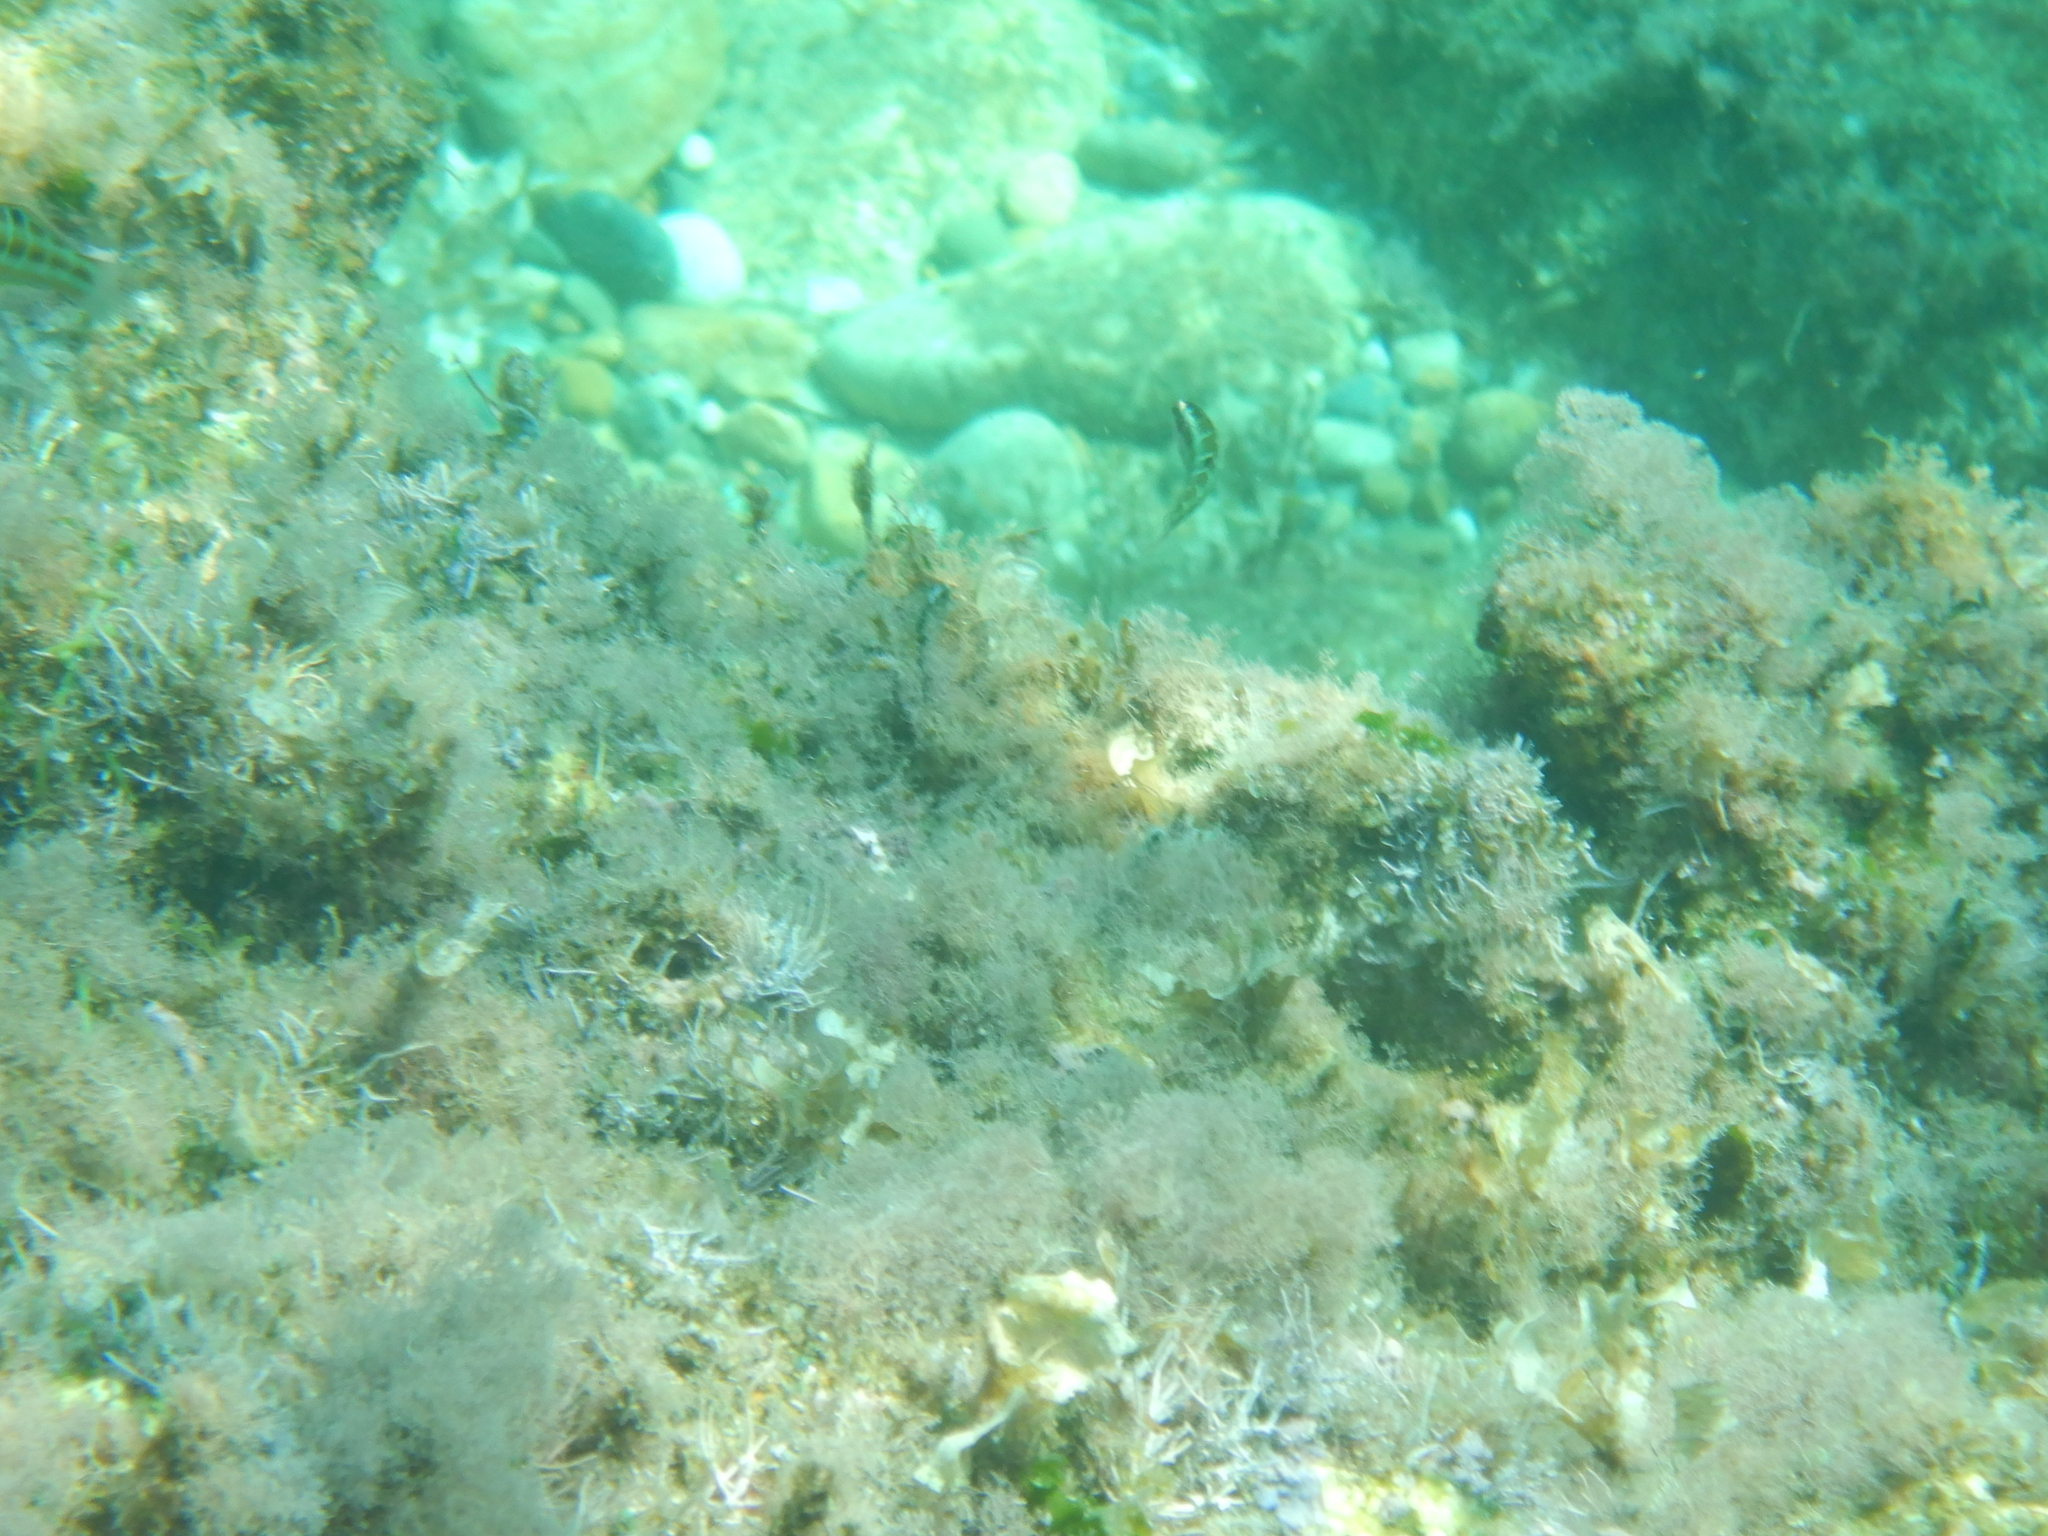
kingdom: Animalia
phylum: Chordata
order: Perciformes
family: Labridae
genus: Thalassoma
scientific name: Thalassoma pavo
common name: Ornate wrasse
